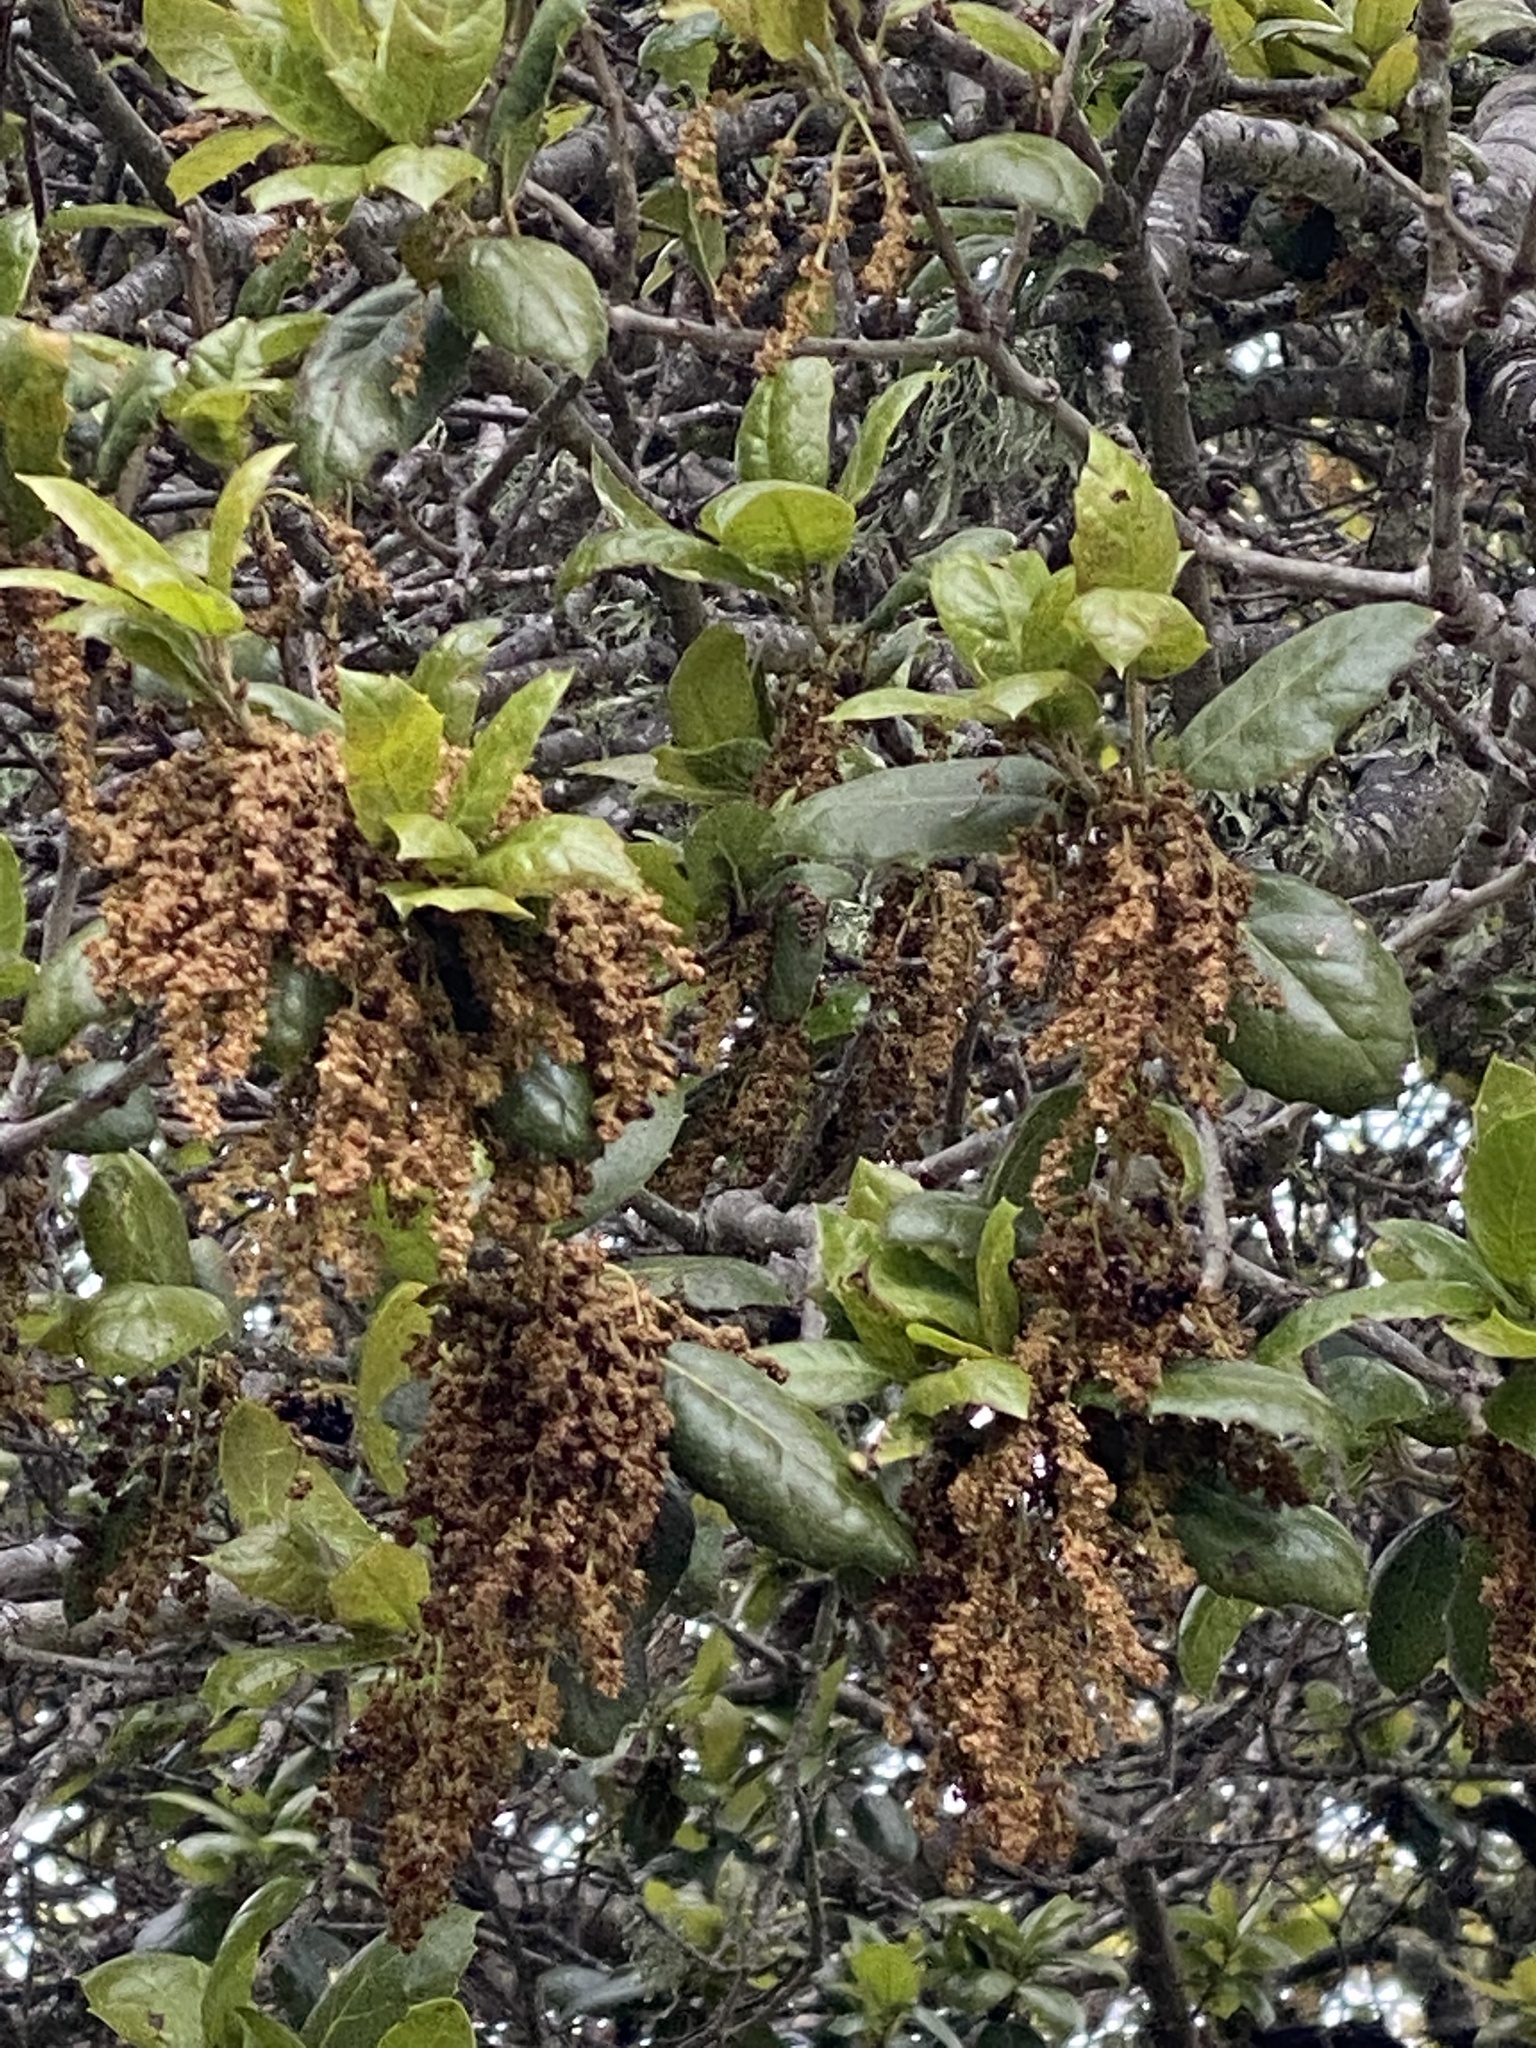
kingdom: Plantae
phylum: Tracheophyta
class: Magnoliopsida
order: Fagales
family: Fagaceae
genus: Quercus
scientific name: Quercus agrifolia
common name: California live oak
